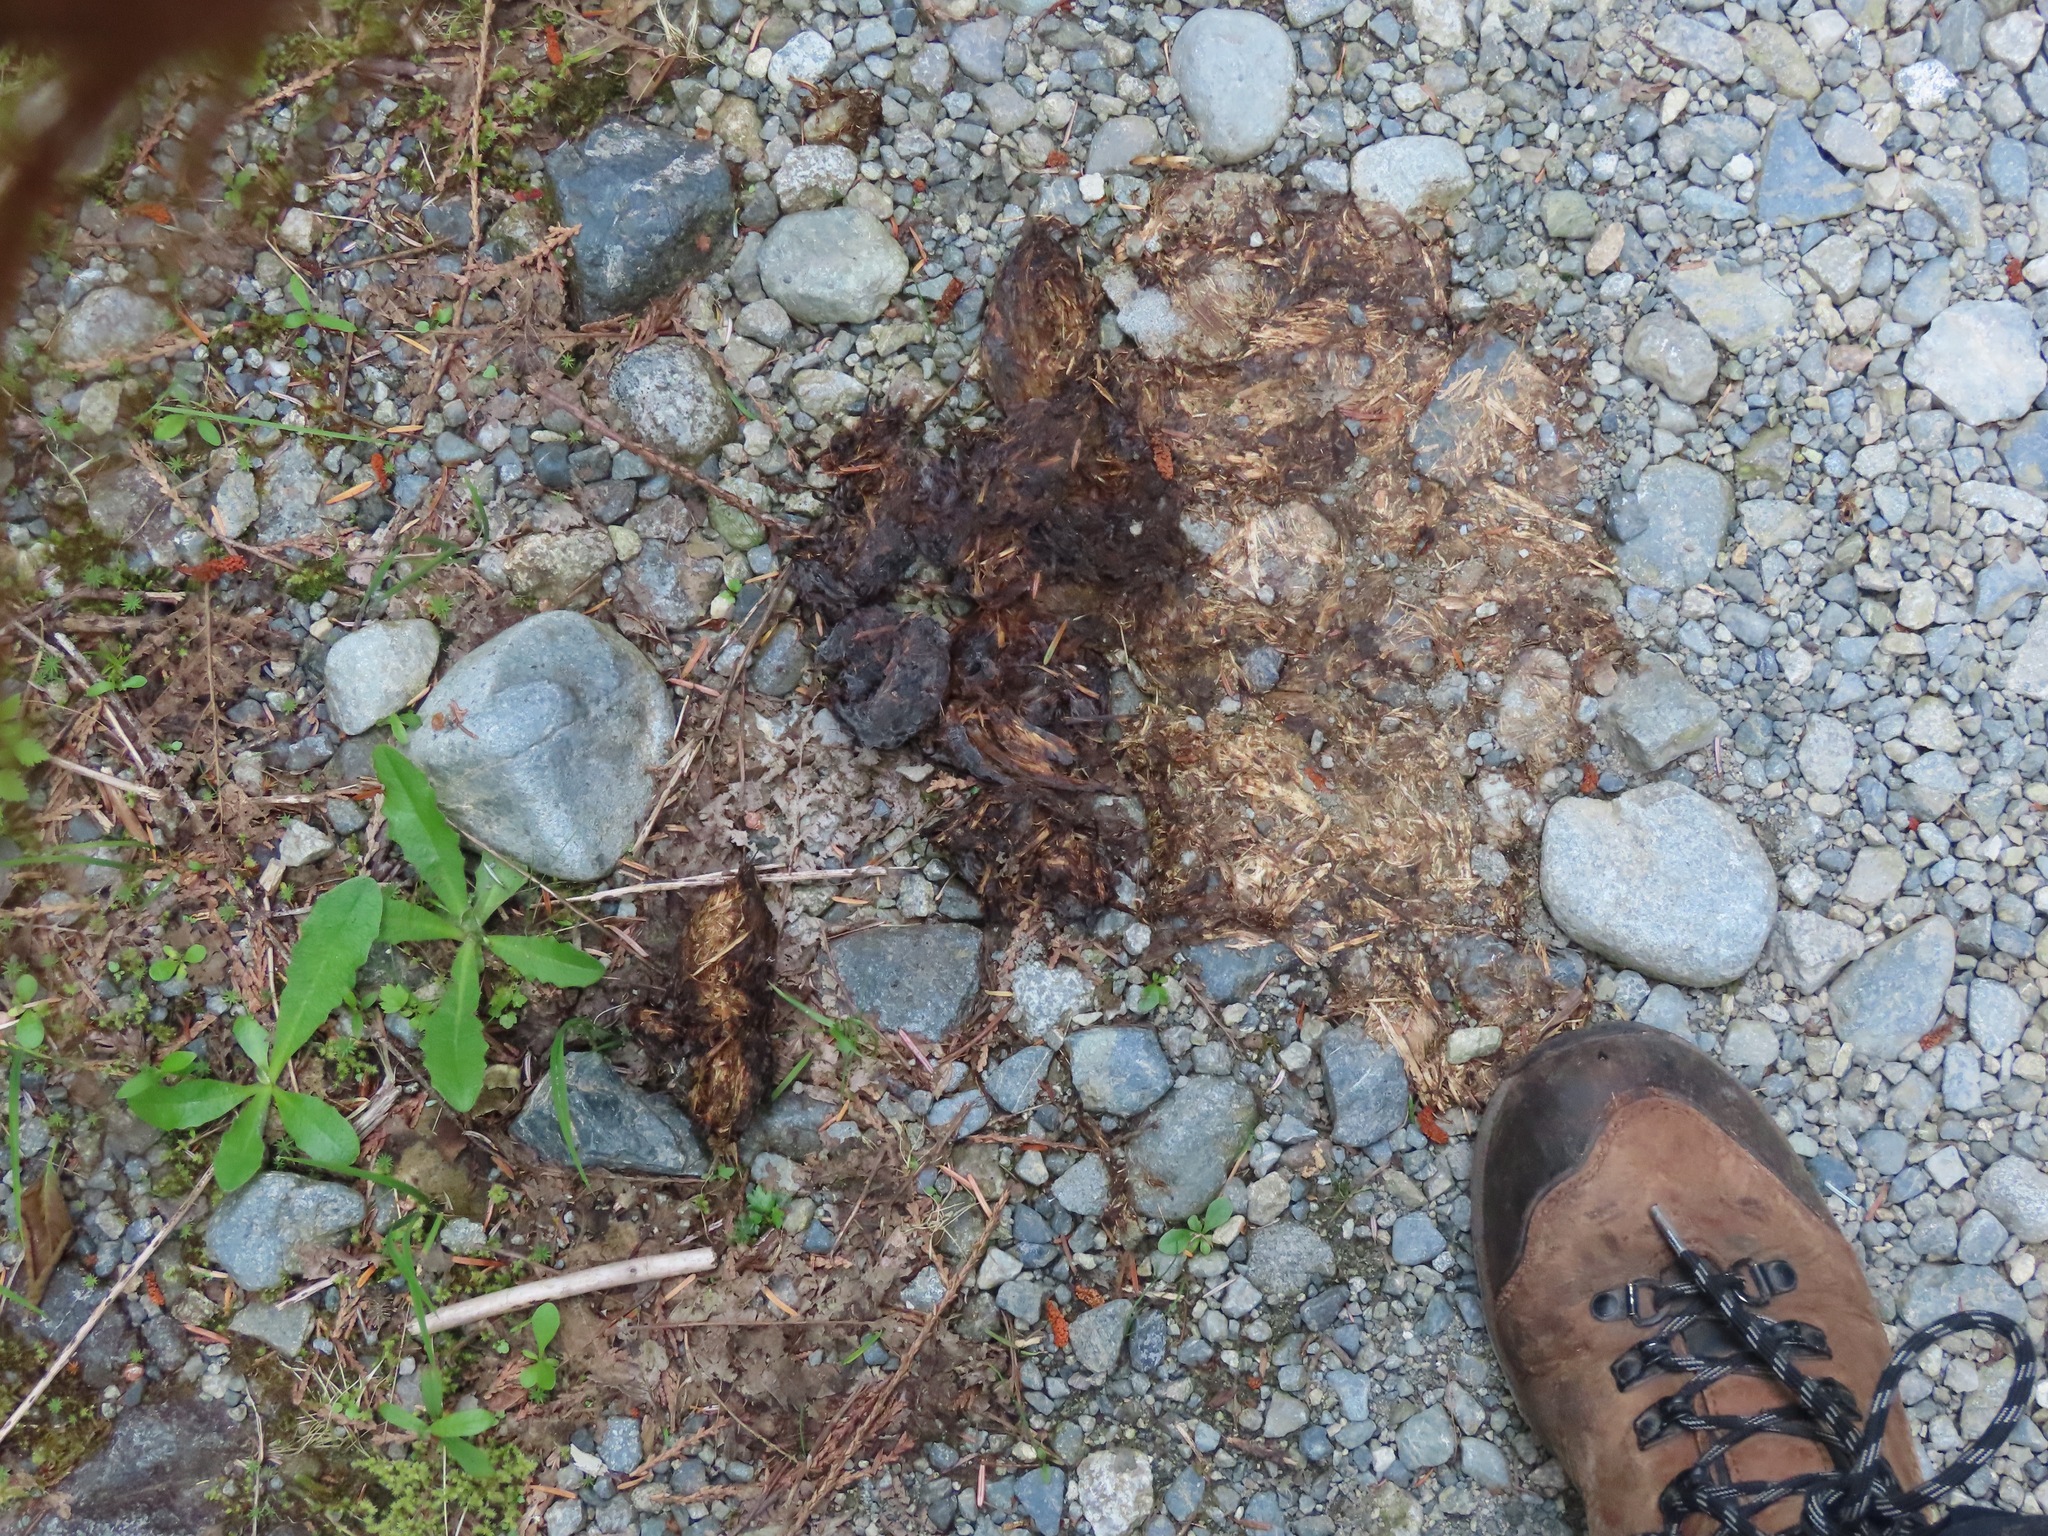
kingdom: Animalia
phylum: Chordata
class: Mammalia
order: Carnivora
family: Ursidae
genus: Ursus
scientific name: Ursus americanus
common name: American black bear
